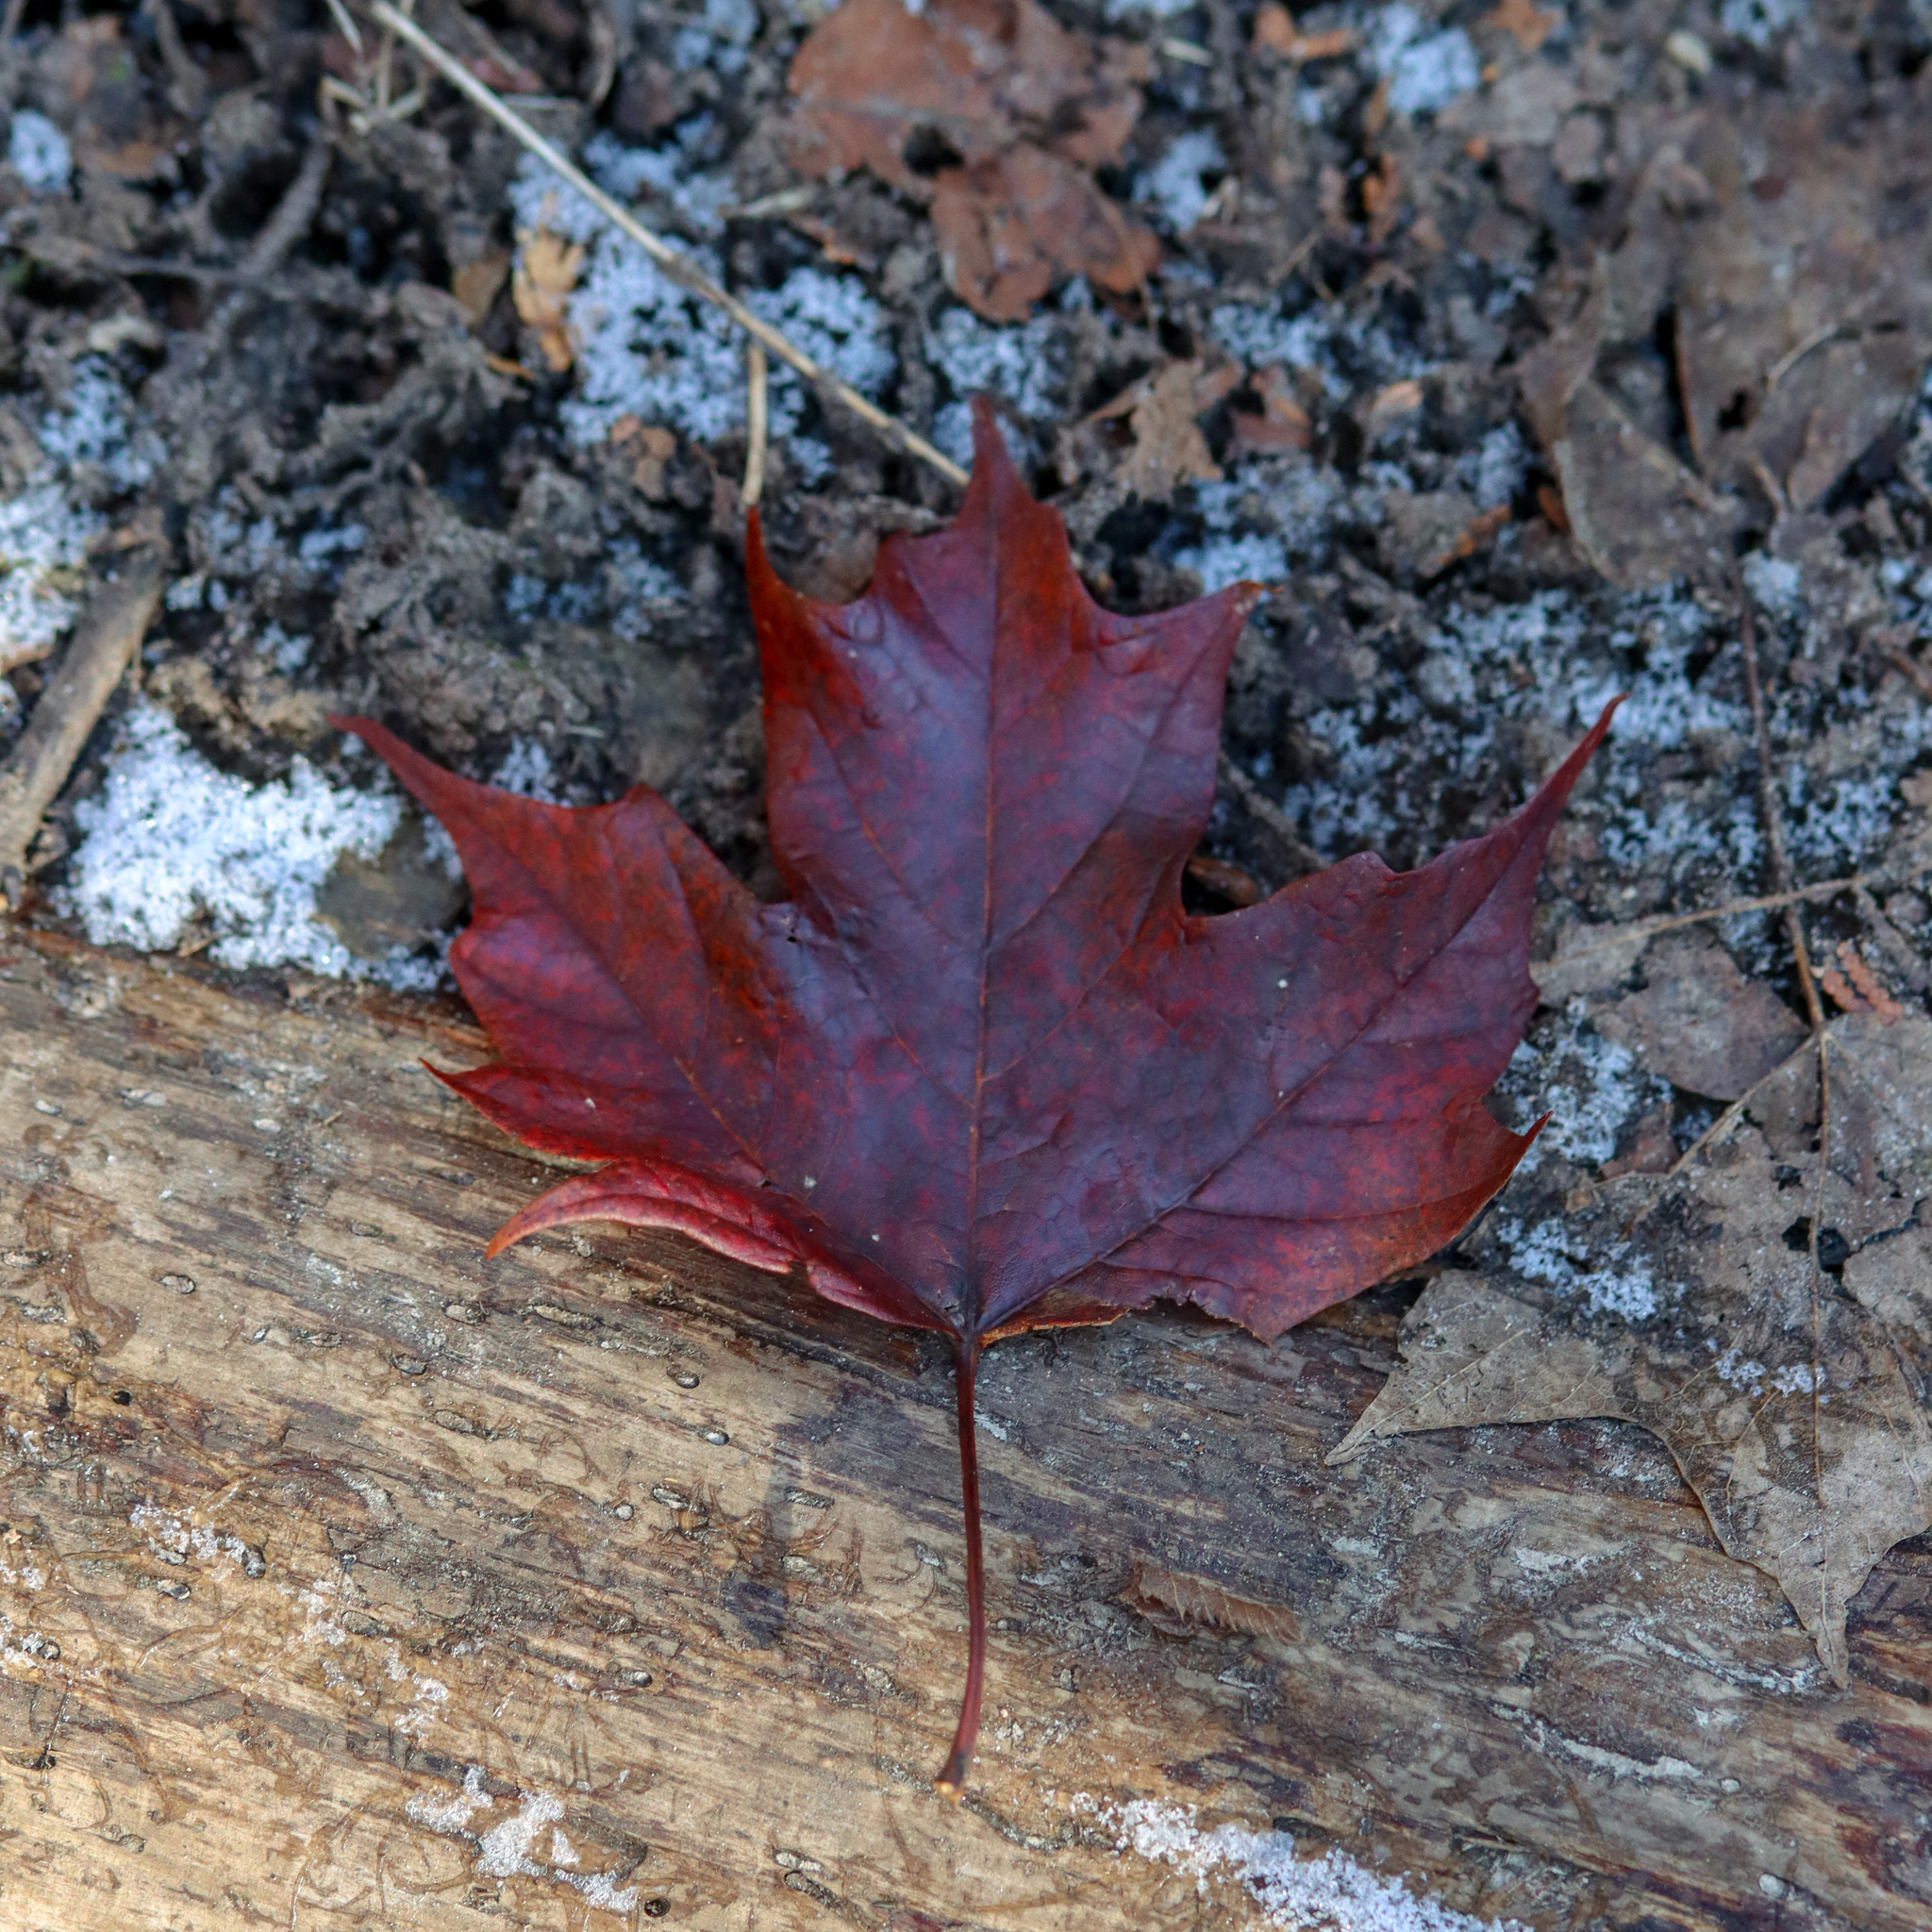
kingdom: Plantae
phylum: Tracheophyta
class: Magnoliopsida
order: Sapindales
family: Sapindaceae
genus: Acer
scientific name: Acer saccharum
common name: Sugar maple
